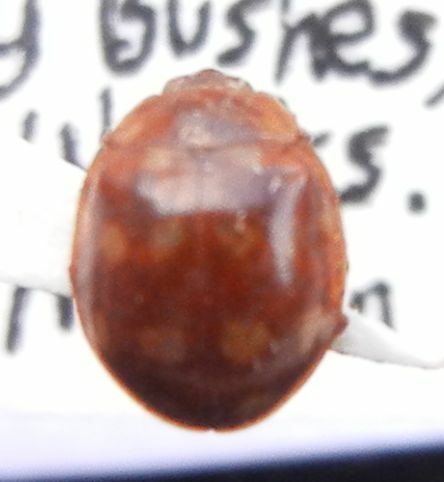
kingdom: Animalia
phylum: Arthropoda
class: Insecta
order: Coleoptera
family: Coccinellidae
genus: Calvia
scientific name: Calvia quatuordecimguttata
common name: Cream-spot ladybird
